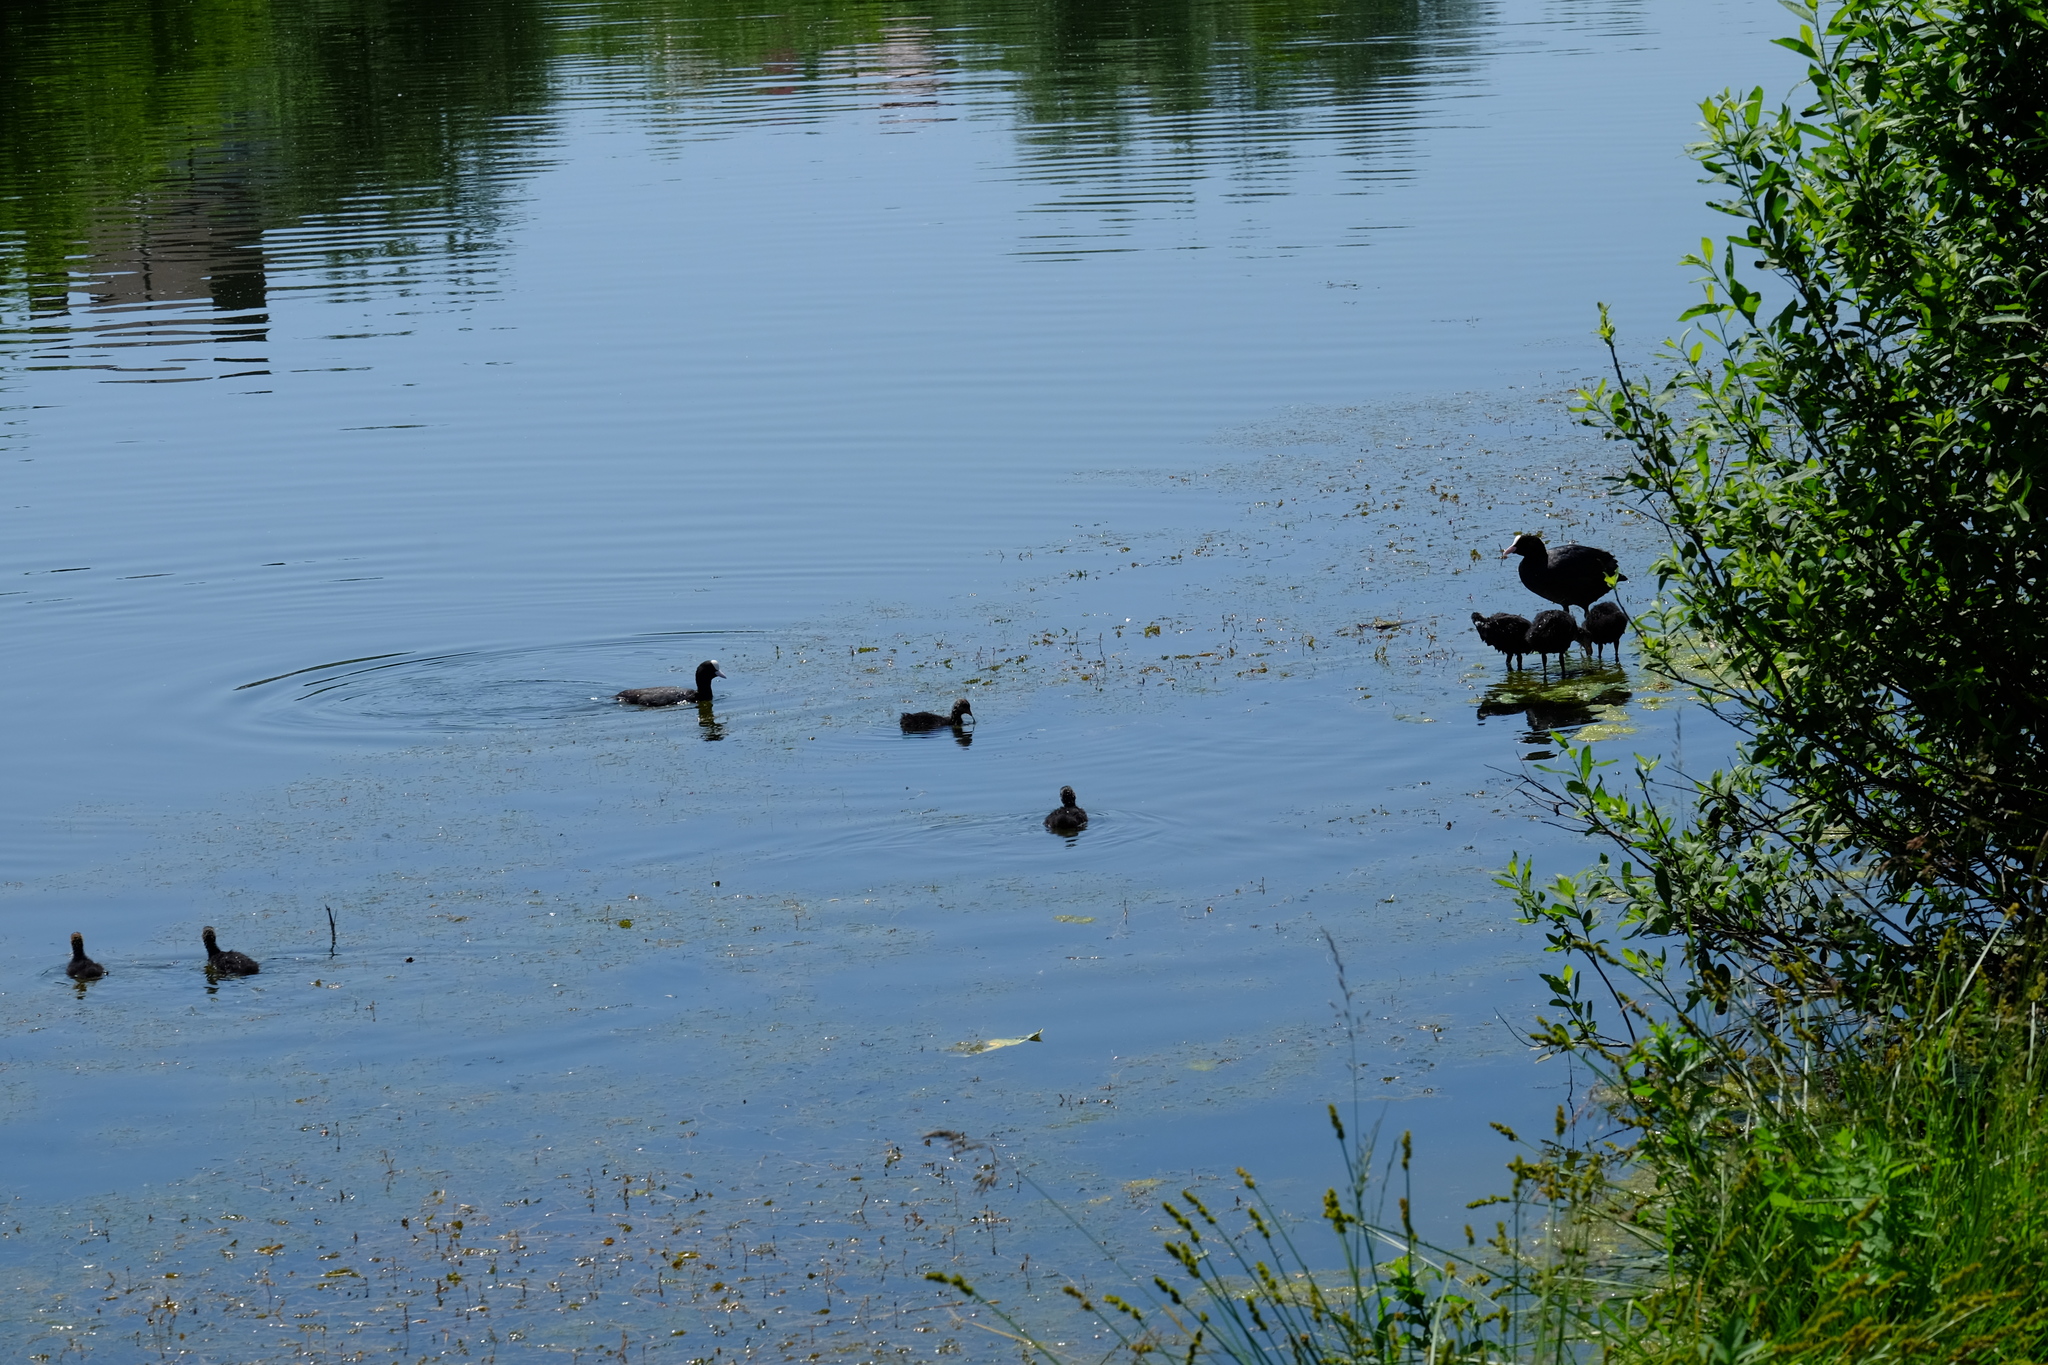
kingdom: Animalia
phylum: Chordata
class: Aves
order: Gruiformes
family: Rallidae
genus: Fulica
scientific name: Fulica atra
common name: Eurasian coot
